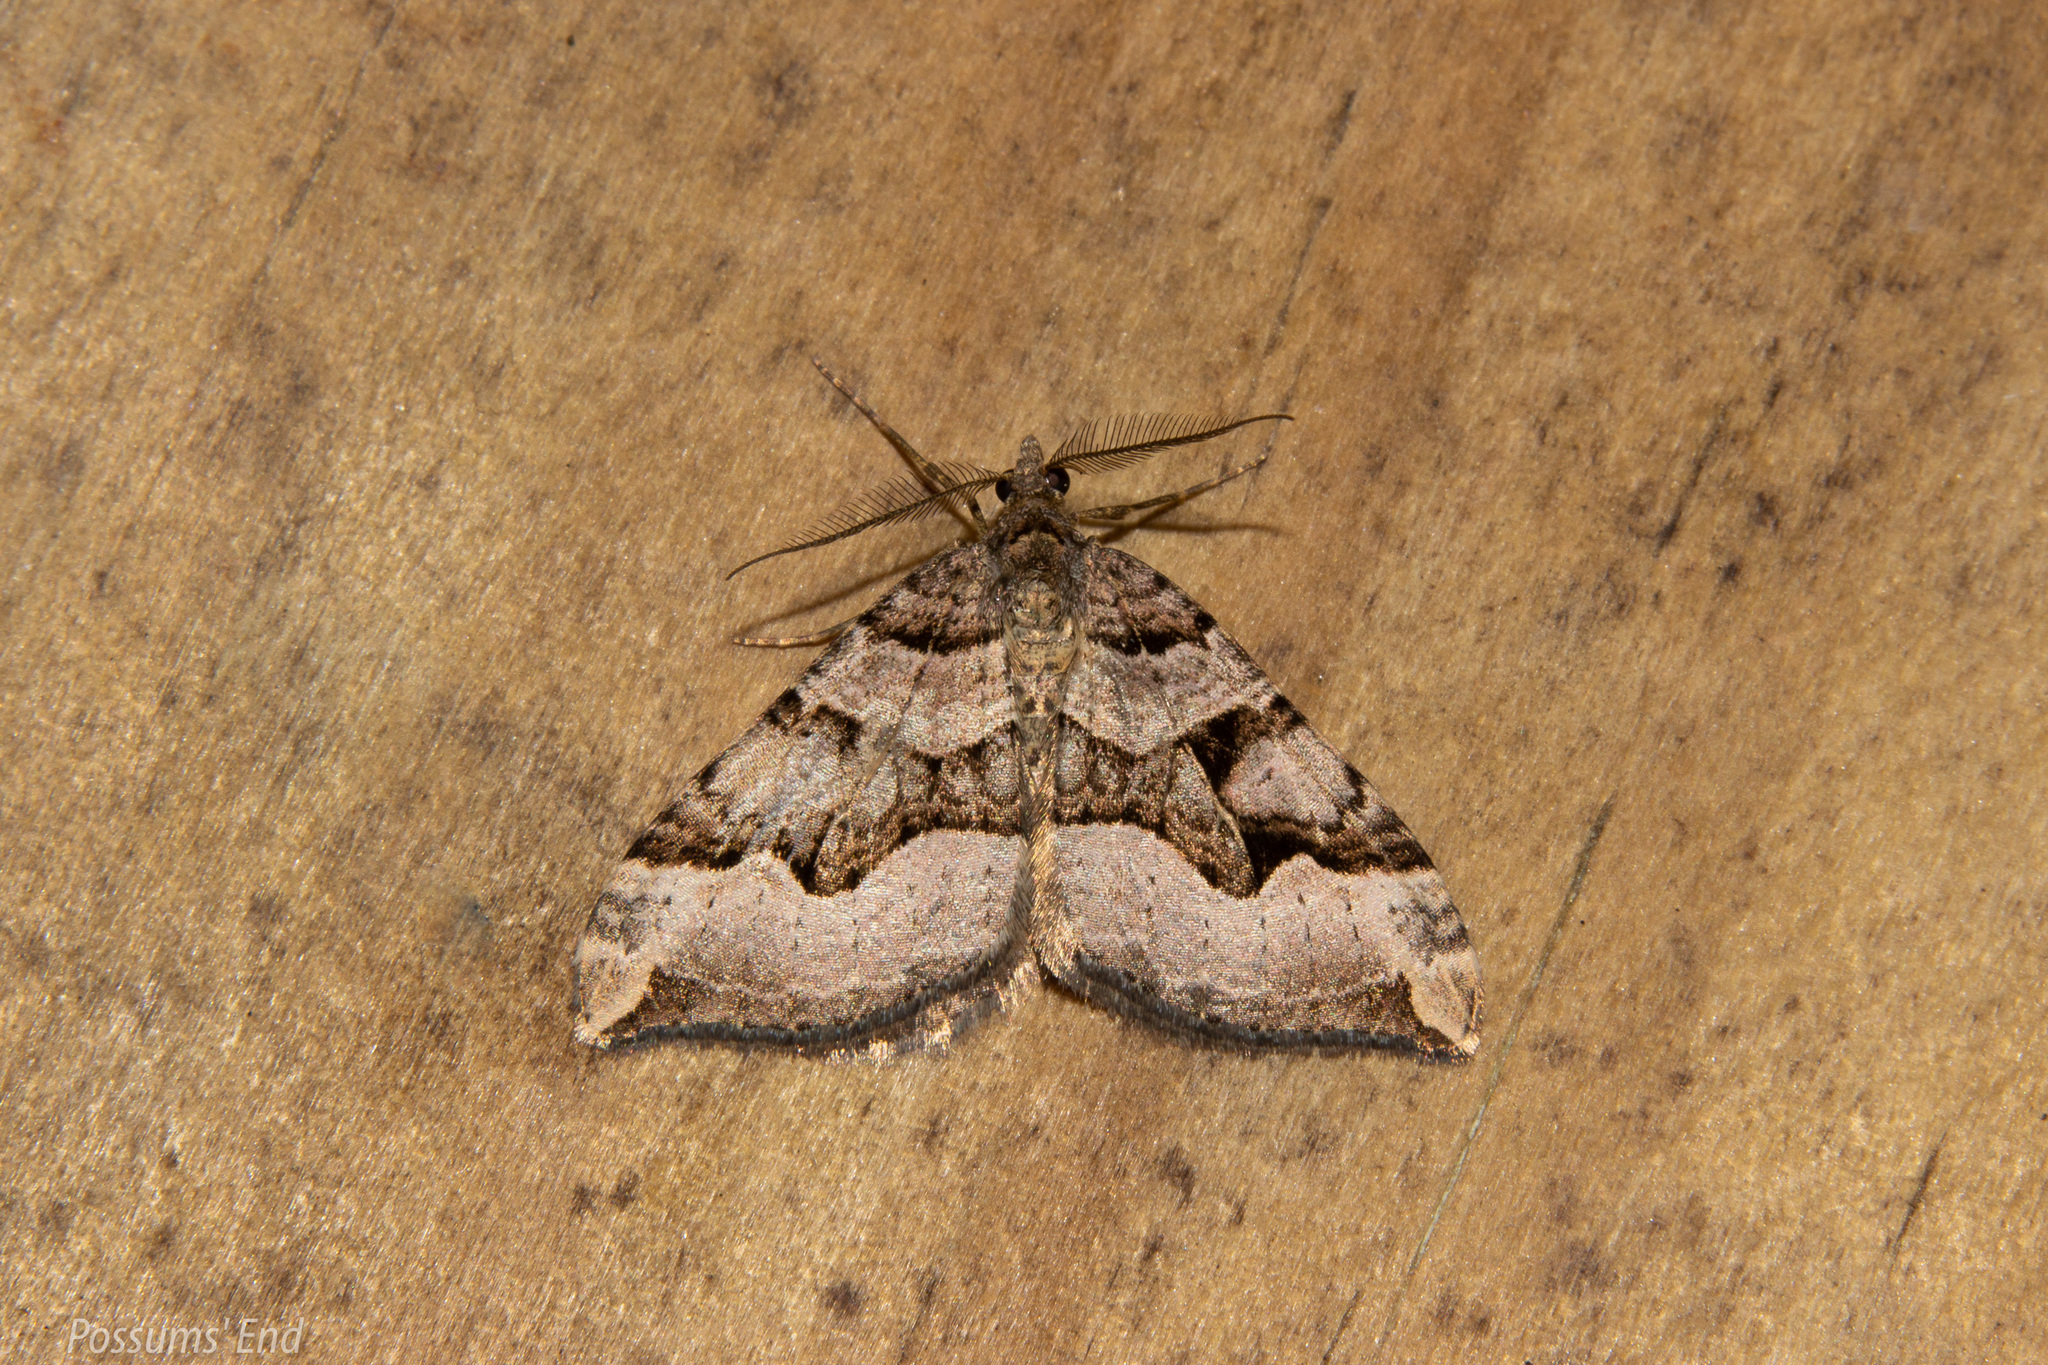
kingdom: Animalia
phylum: Arthropoda
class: Insecta
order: Lepidoptera
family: Geometridae
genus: Xanthorhoe
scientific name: Xanthorhoe semifissata
